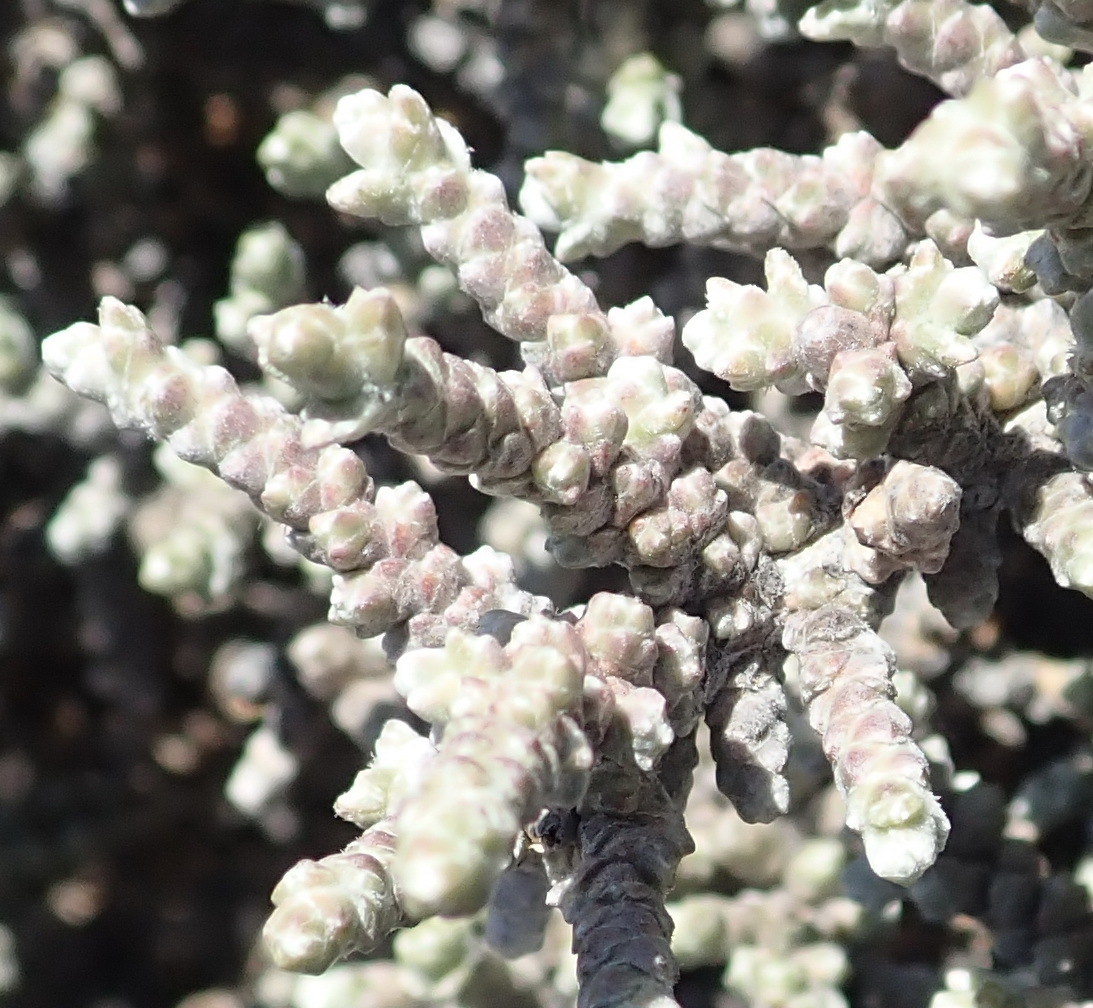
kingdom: Plantae
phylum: Tracheophyta
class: Magnoliopsida
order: Caryophyllales
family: Amaranthaceae
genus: Caroxylon
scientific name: Caroxylon tuberculatum
